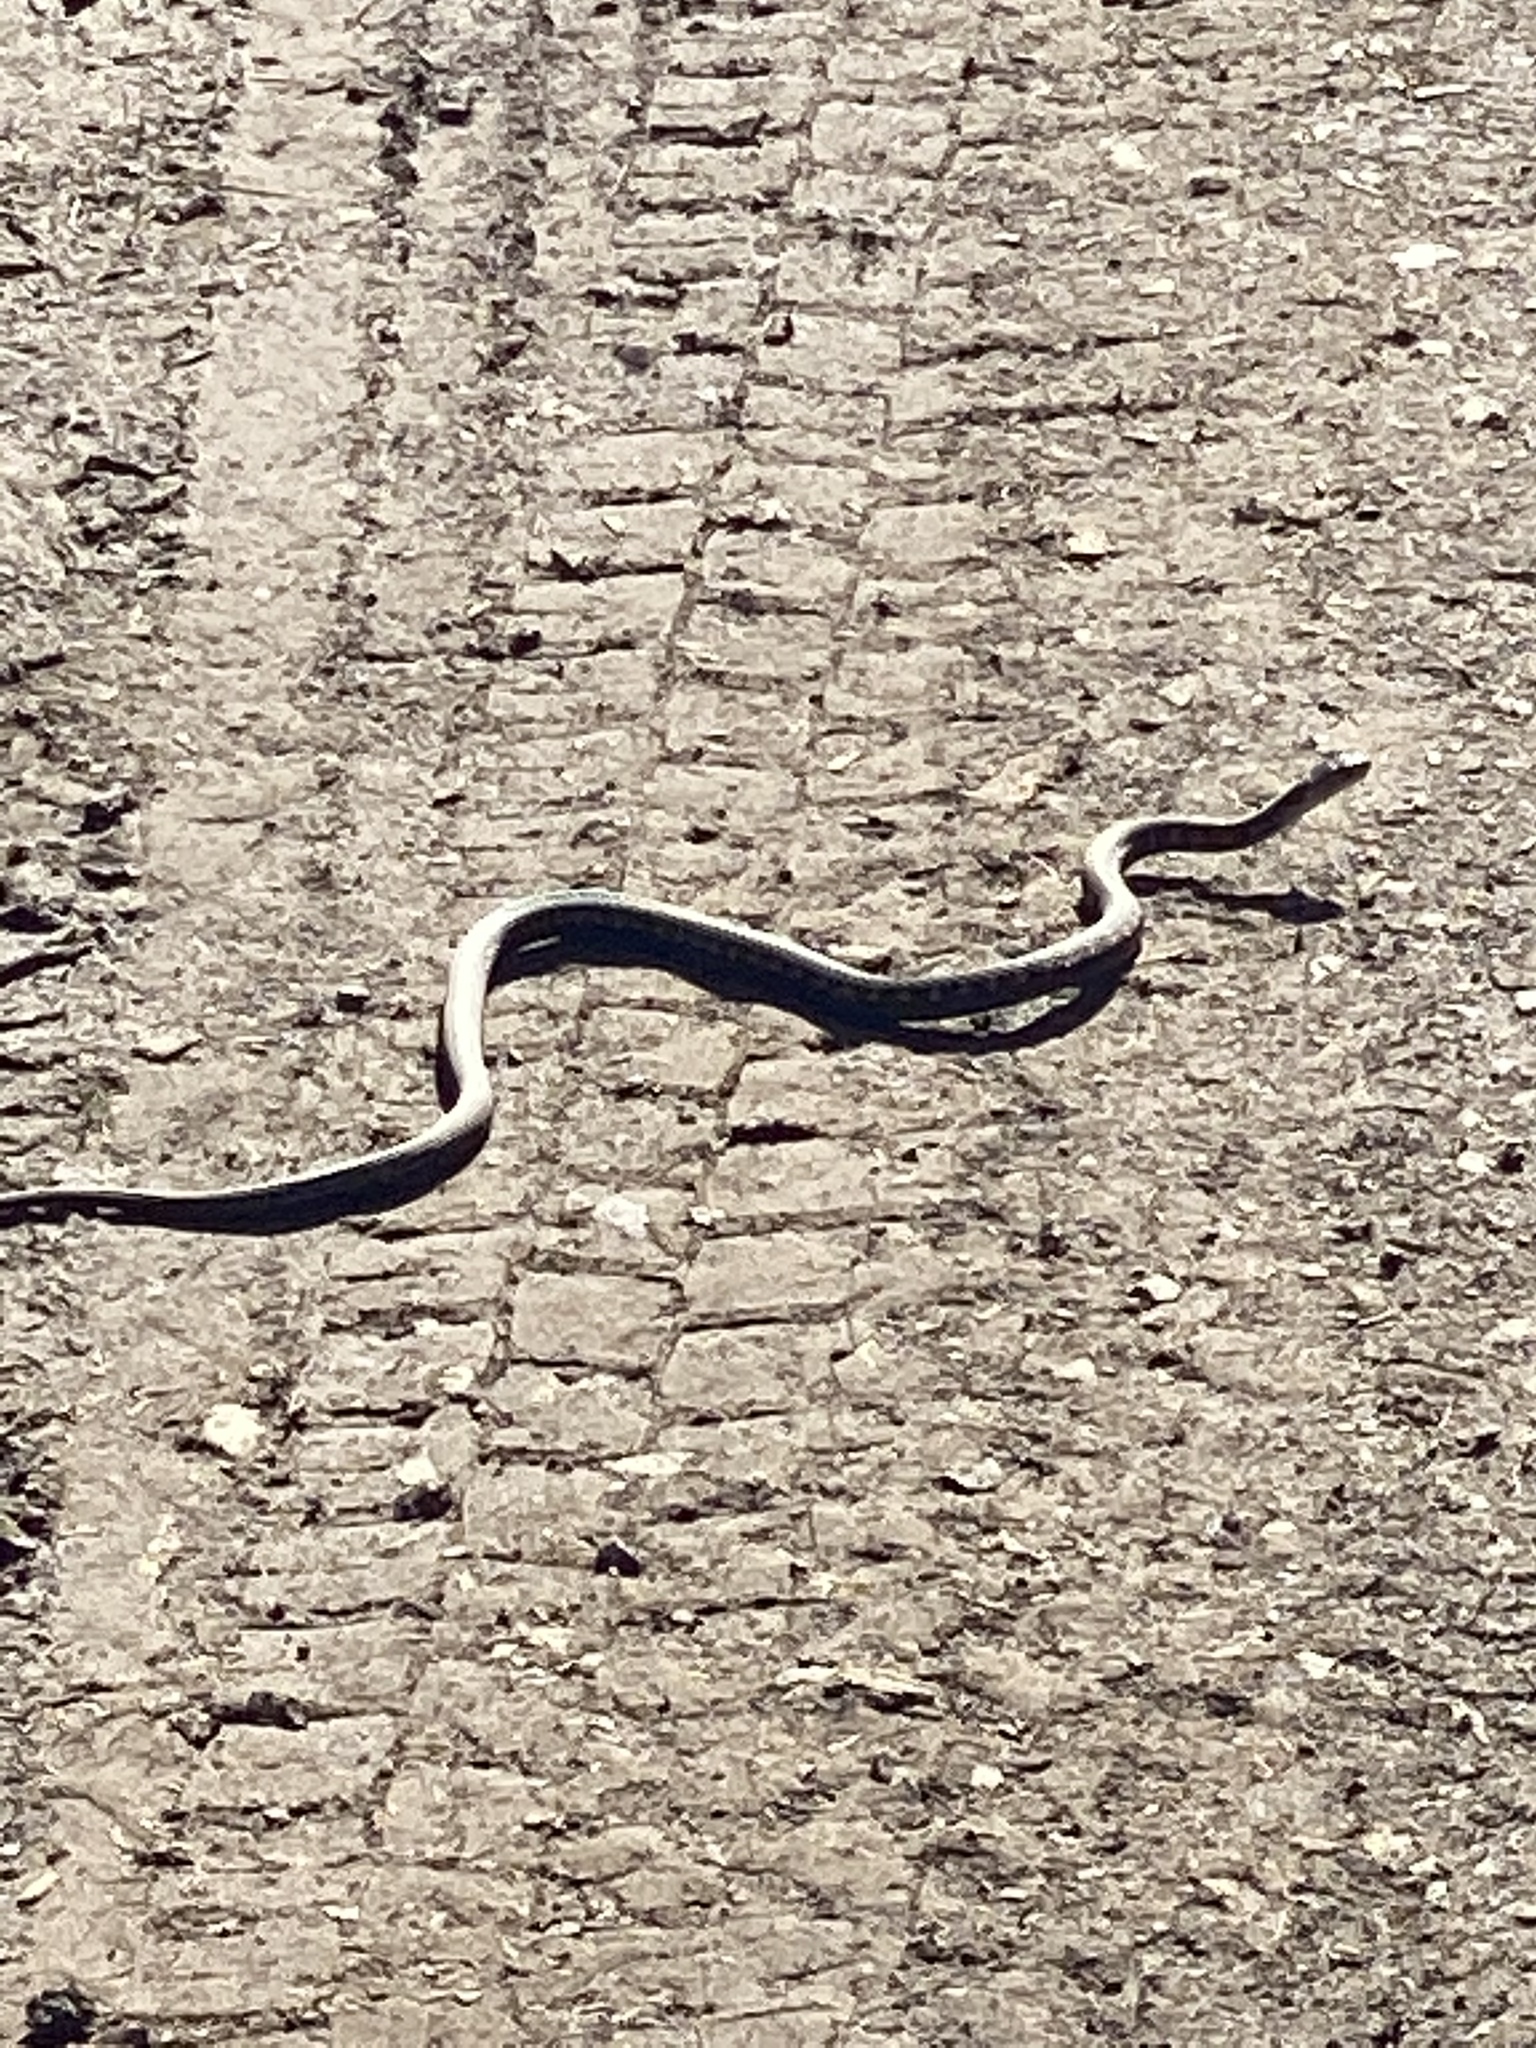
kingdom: Animalia
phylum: Chordata
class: Squamata
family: Colubridae
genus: Thamnophis
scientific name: Thamnophis sirtalis
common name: Common garter snake
